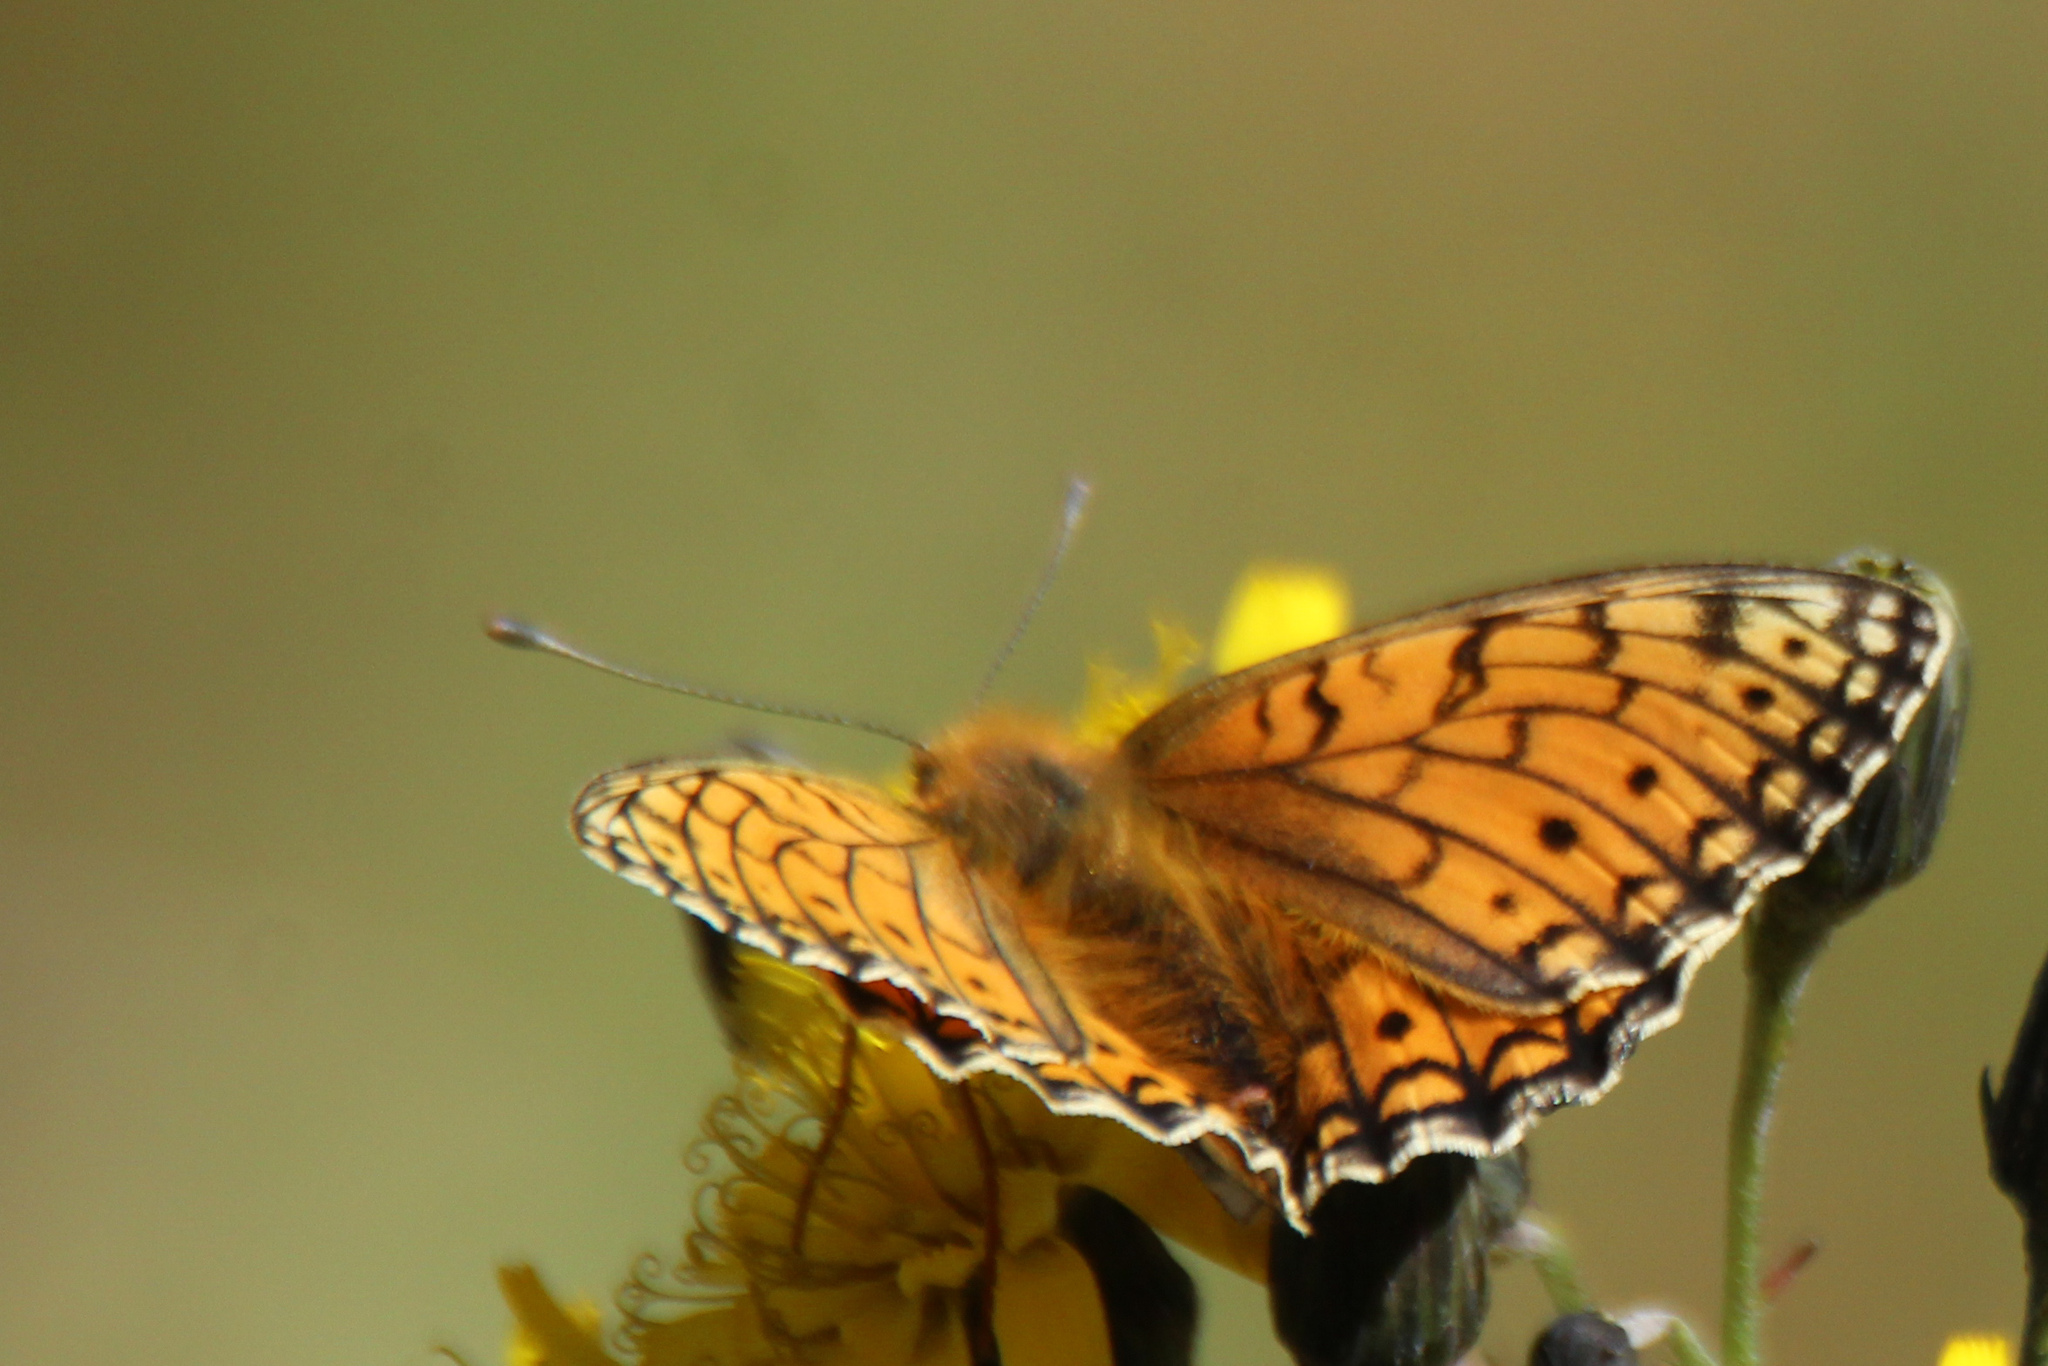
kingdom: Animalia
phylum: Arthropoda
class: Insecta
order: Lepidoptera
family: Nymphalidae
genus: Fabriciana
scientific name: Fabriciana niobe
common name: Niobe fritillary
